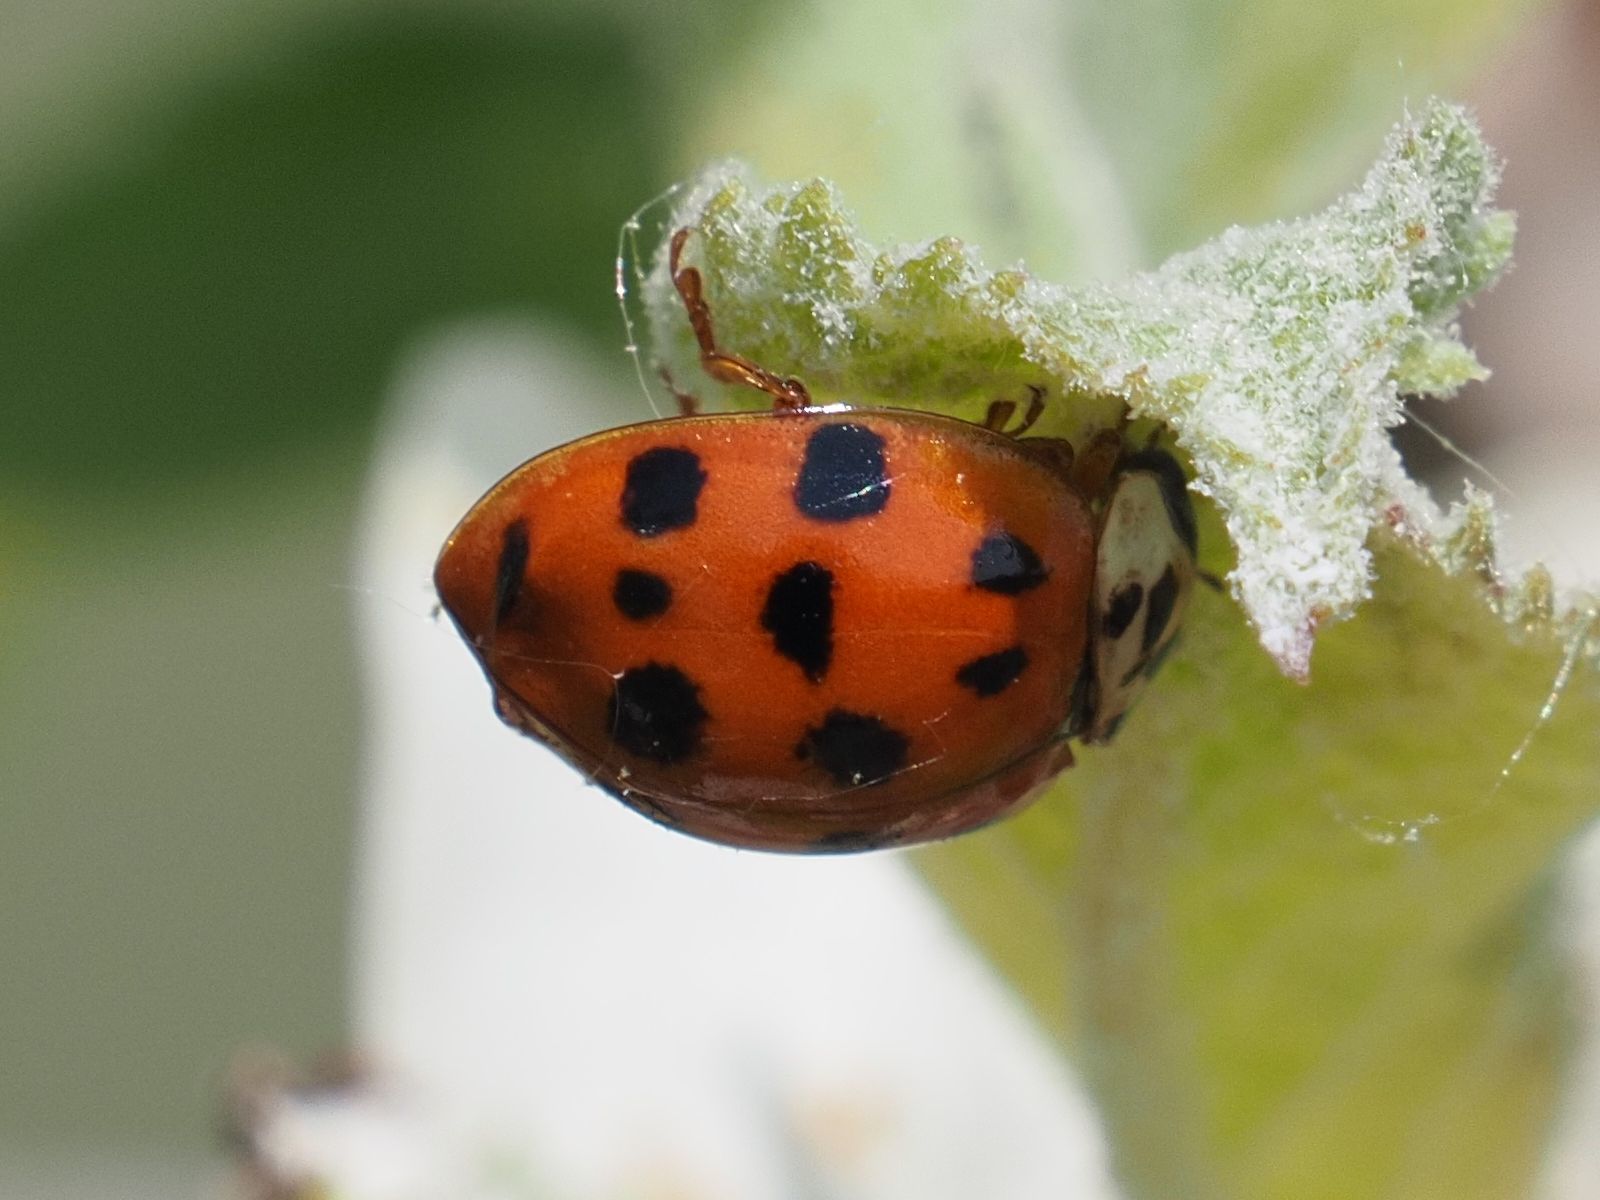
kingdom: Animalia
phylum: Arthropoda
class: Insecta
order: Coleoptera
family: Coccinellidae
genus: Harmonia
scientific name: Harmonia axyridis
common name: Harlequin ladybird
